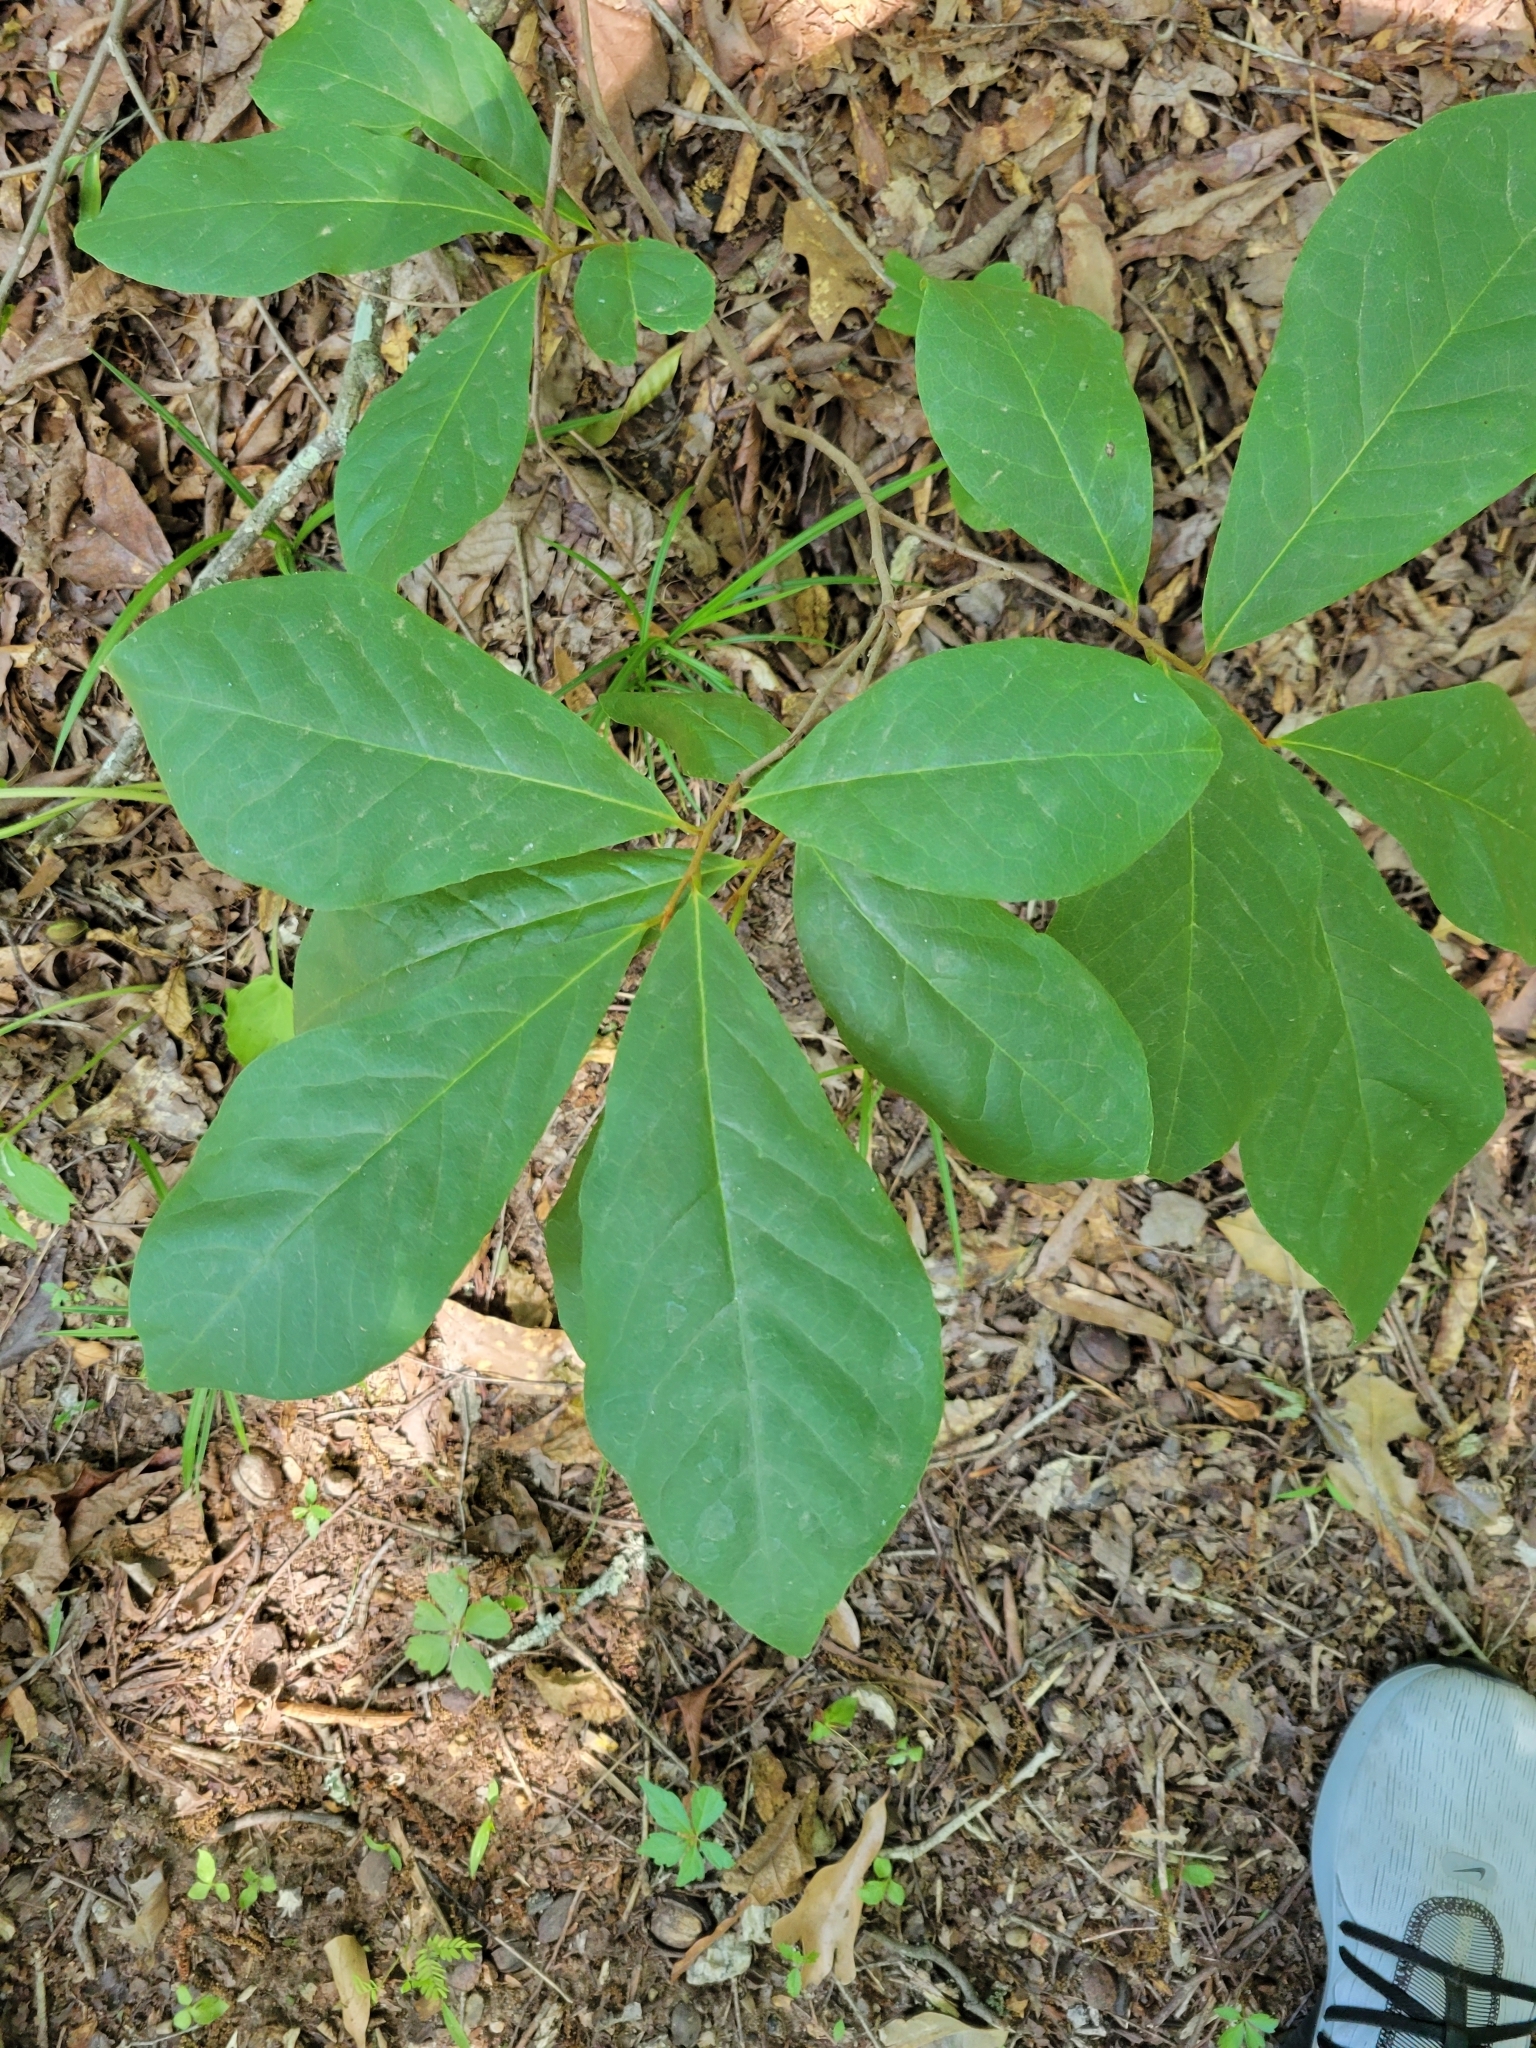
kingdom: Plantae
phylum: Tracheophyta
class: Magnoliopsida
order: Magnoliales
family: Annonaceae
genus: Asimina
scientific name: Asimina parviflora
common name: Dwarf pawpaw
